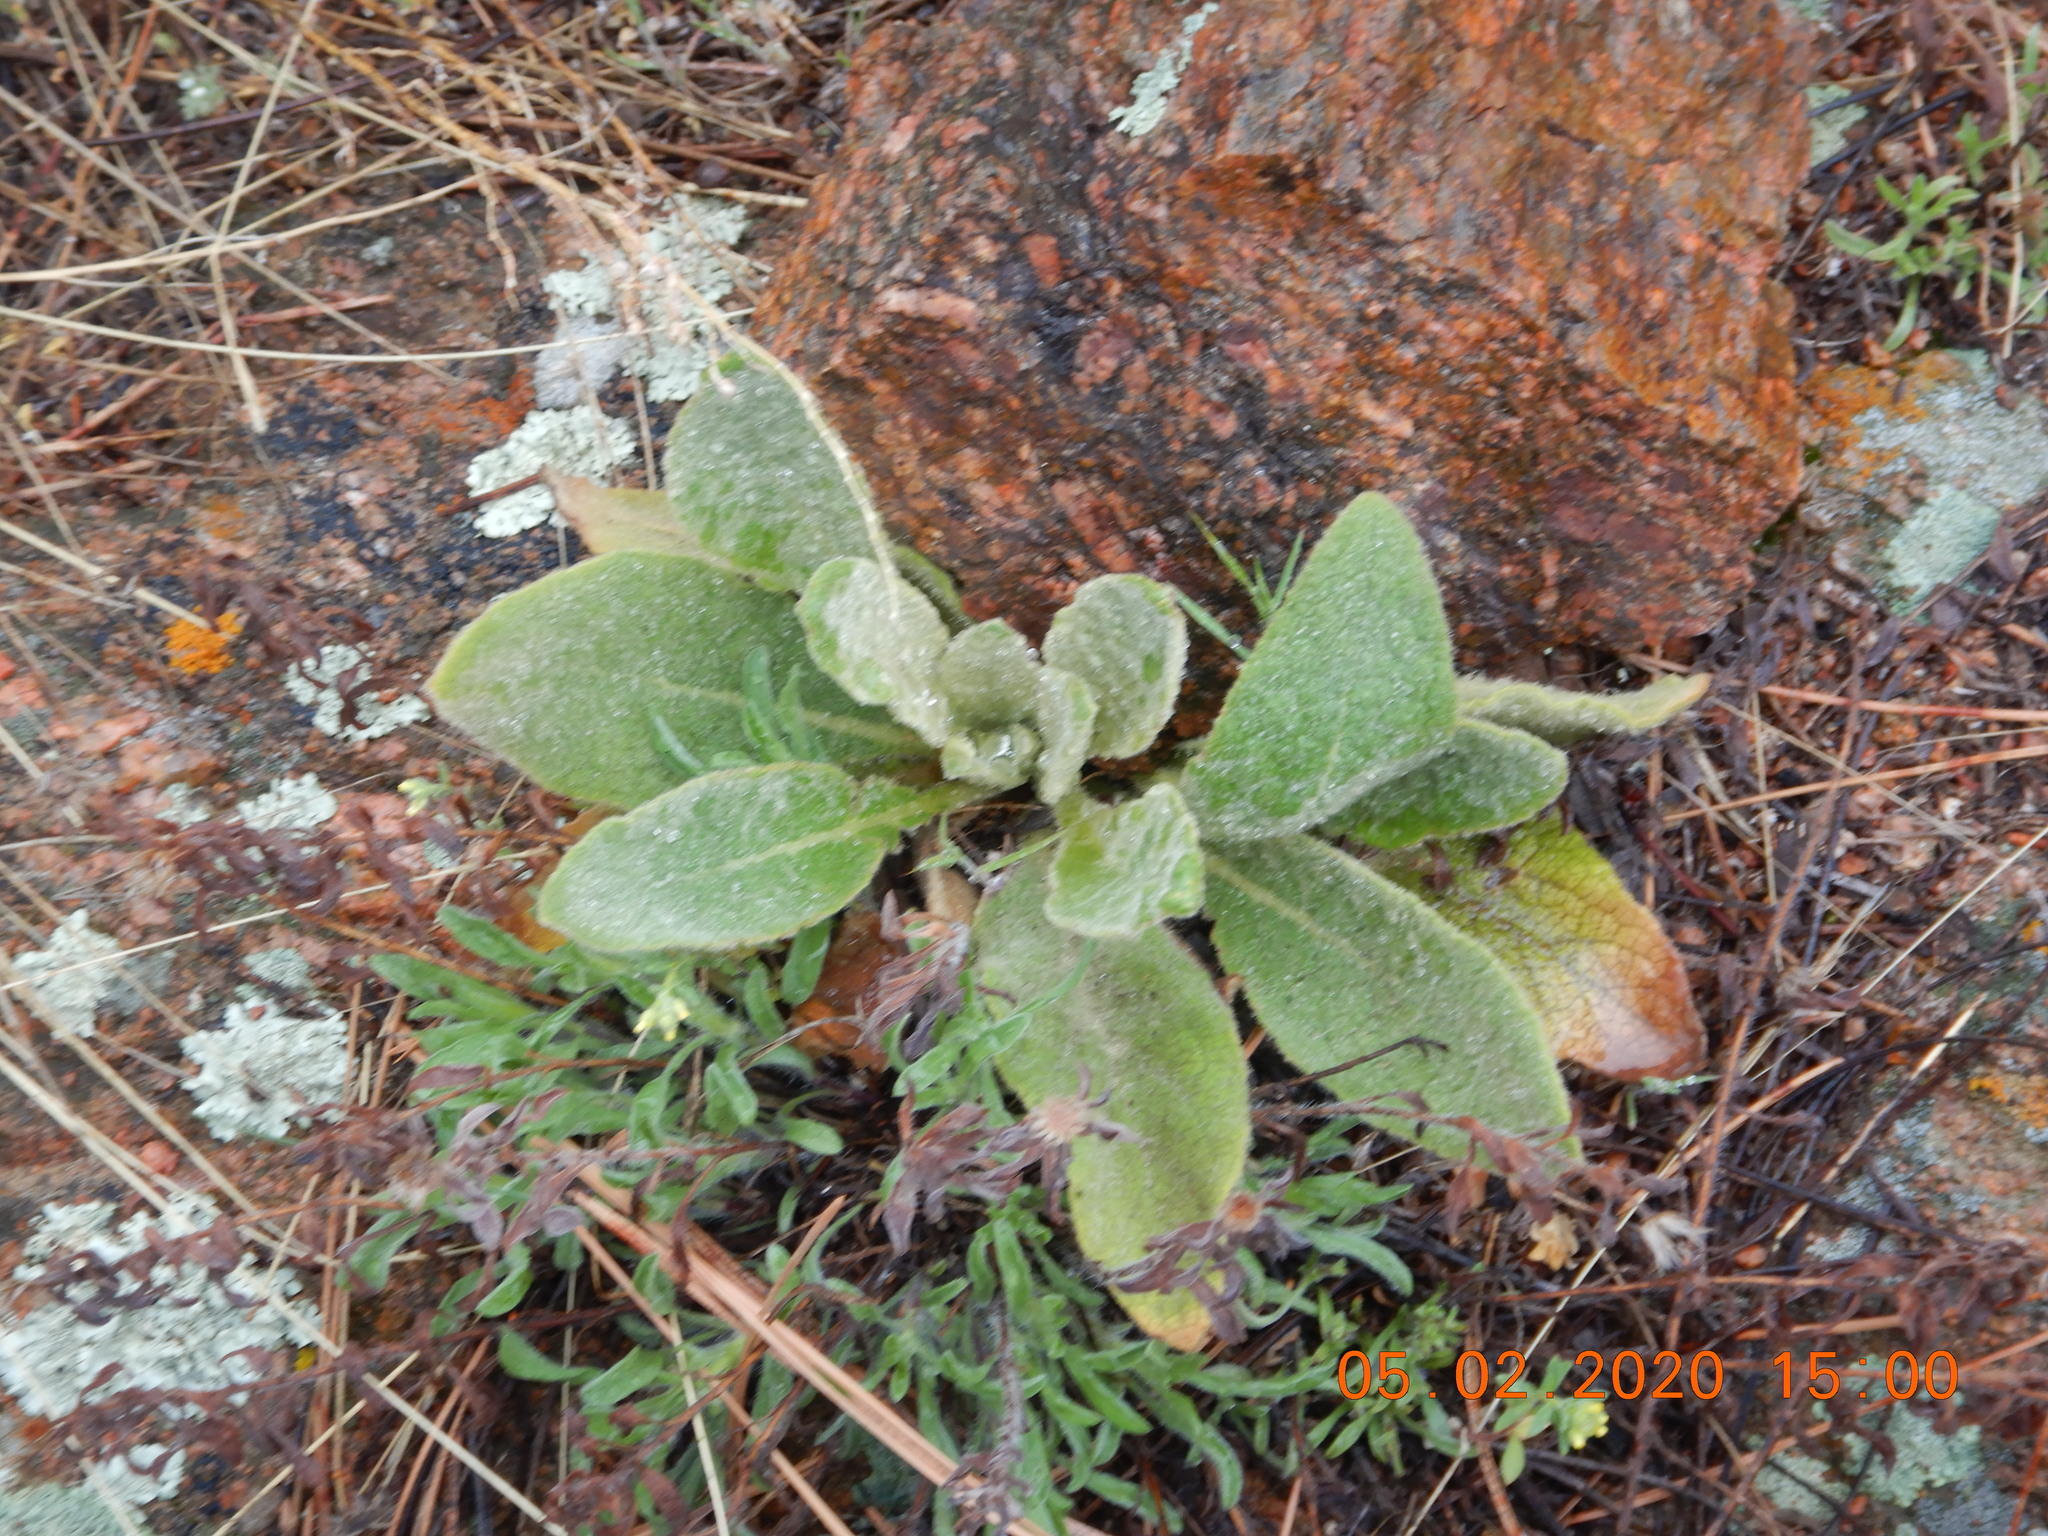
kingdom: Plantae
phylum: Tracheophyta
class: Magnoliopsida
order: Lamiales
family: Scrophulariaceae
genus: Verbascum
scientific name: Verbascum thapsus
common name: Common mullein
